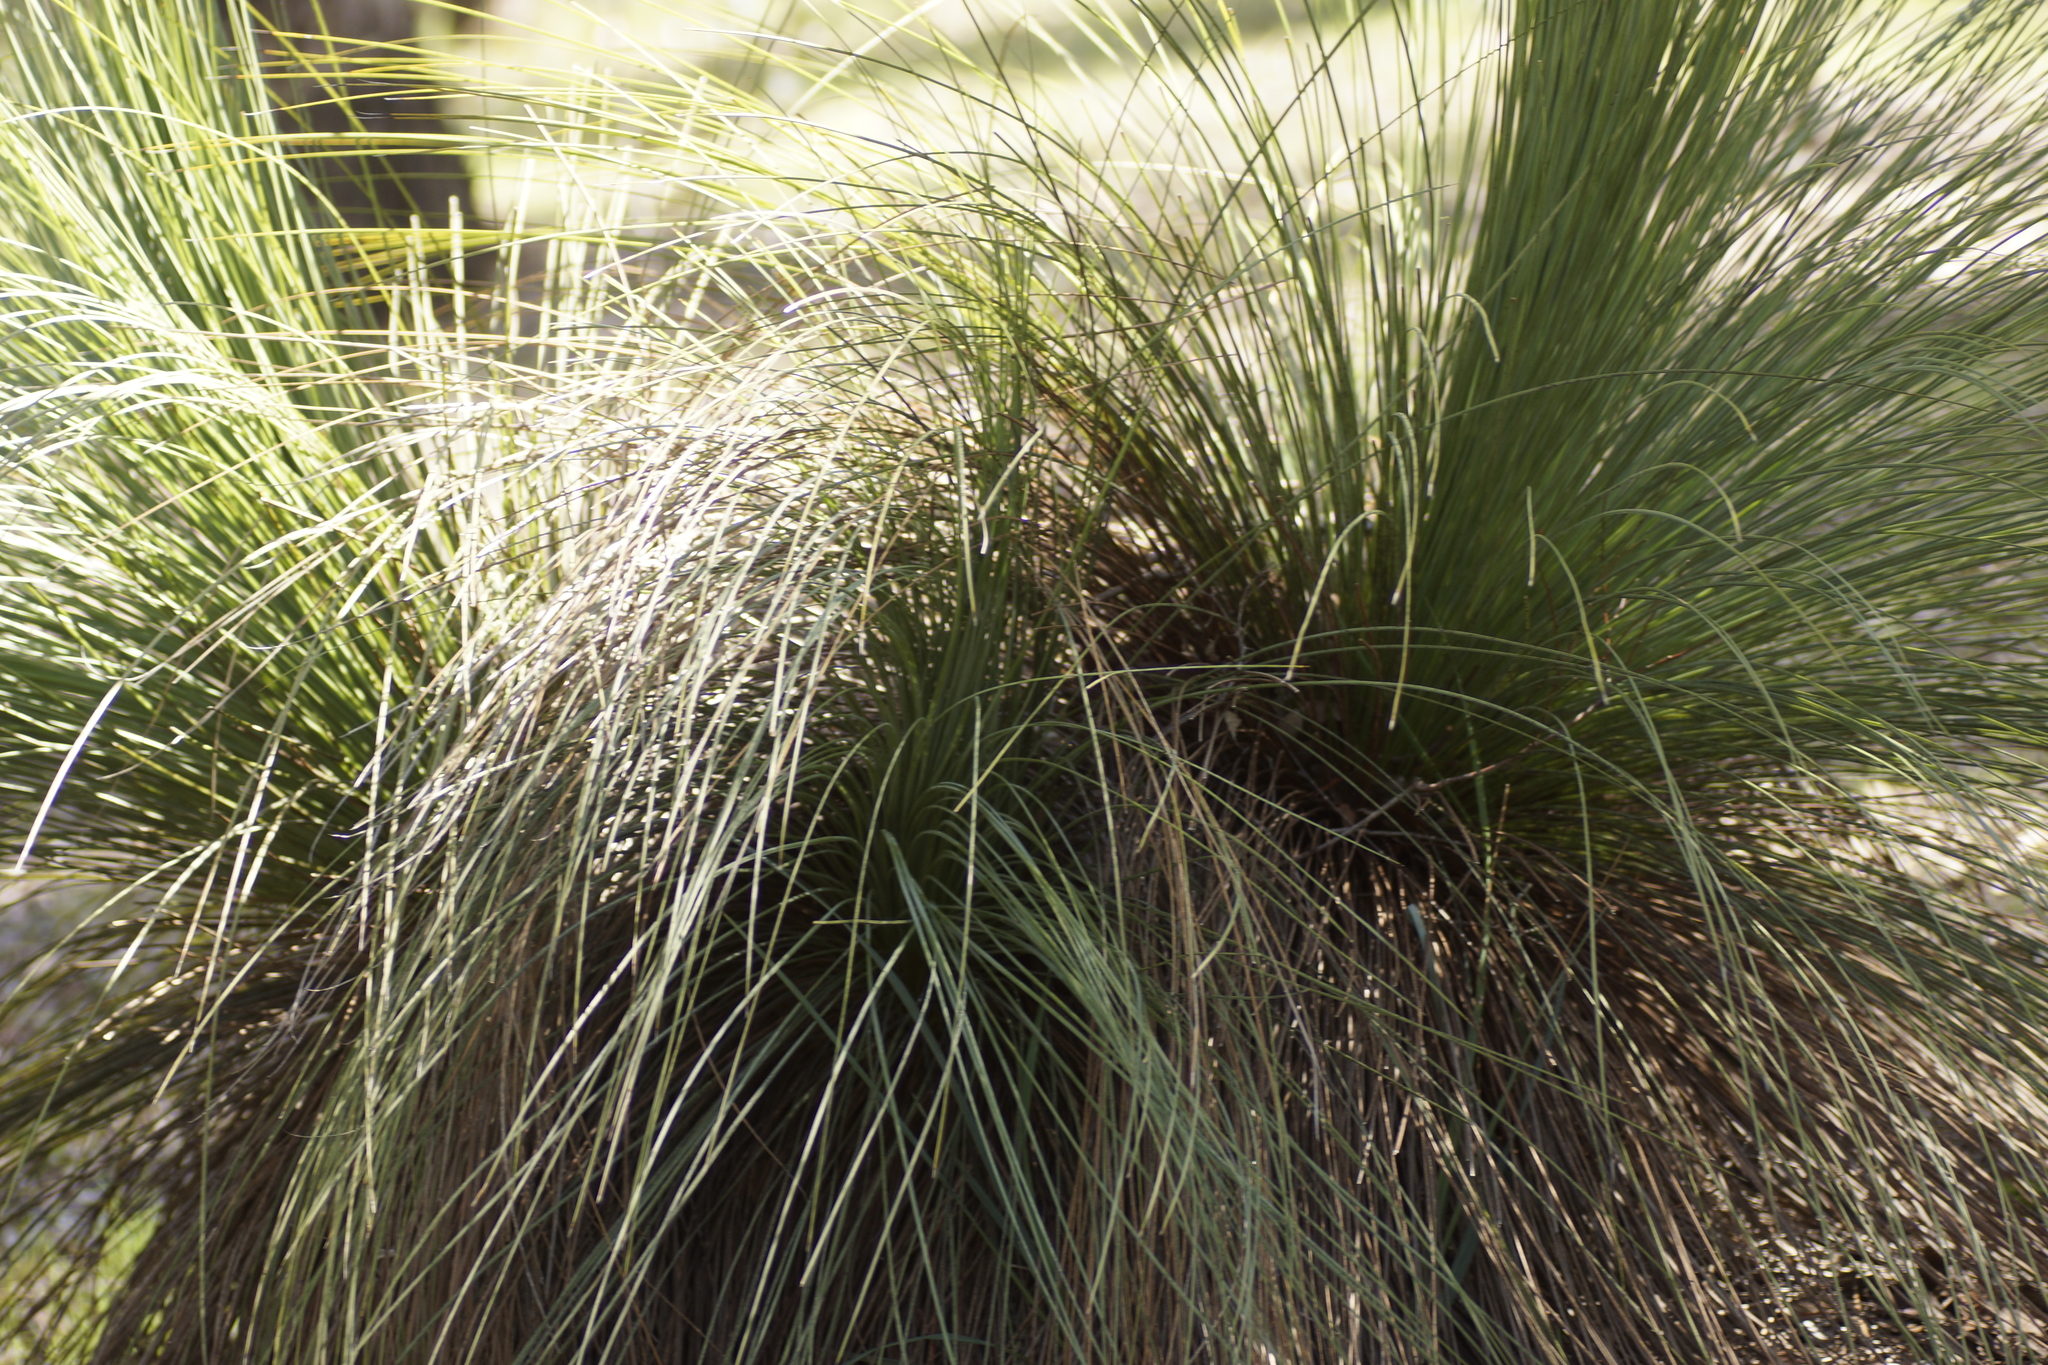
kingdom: Plantae
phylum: Tracheophyta
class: Liliopsida
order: Asparagales
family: Asphodelaceae
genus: Xanthorrhoea
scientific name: Xanthorrhoea australis
